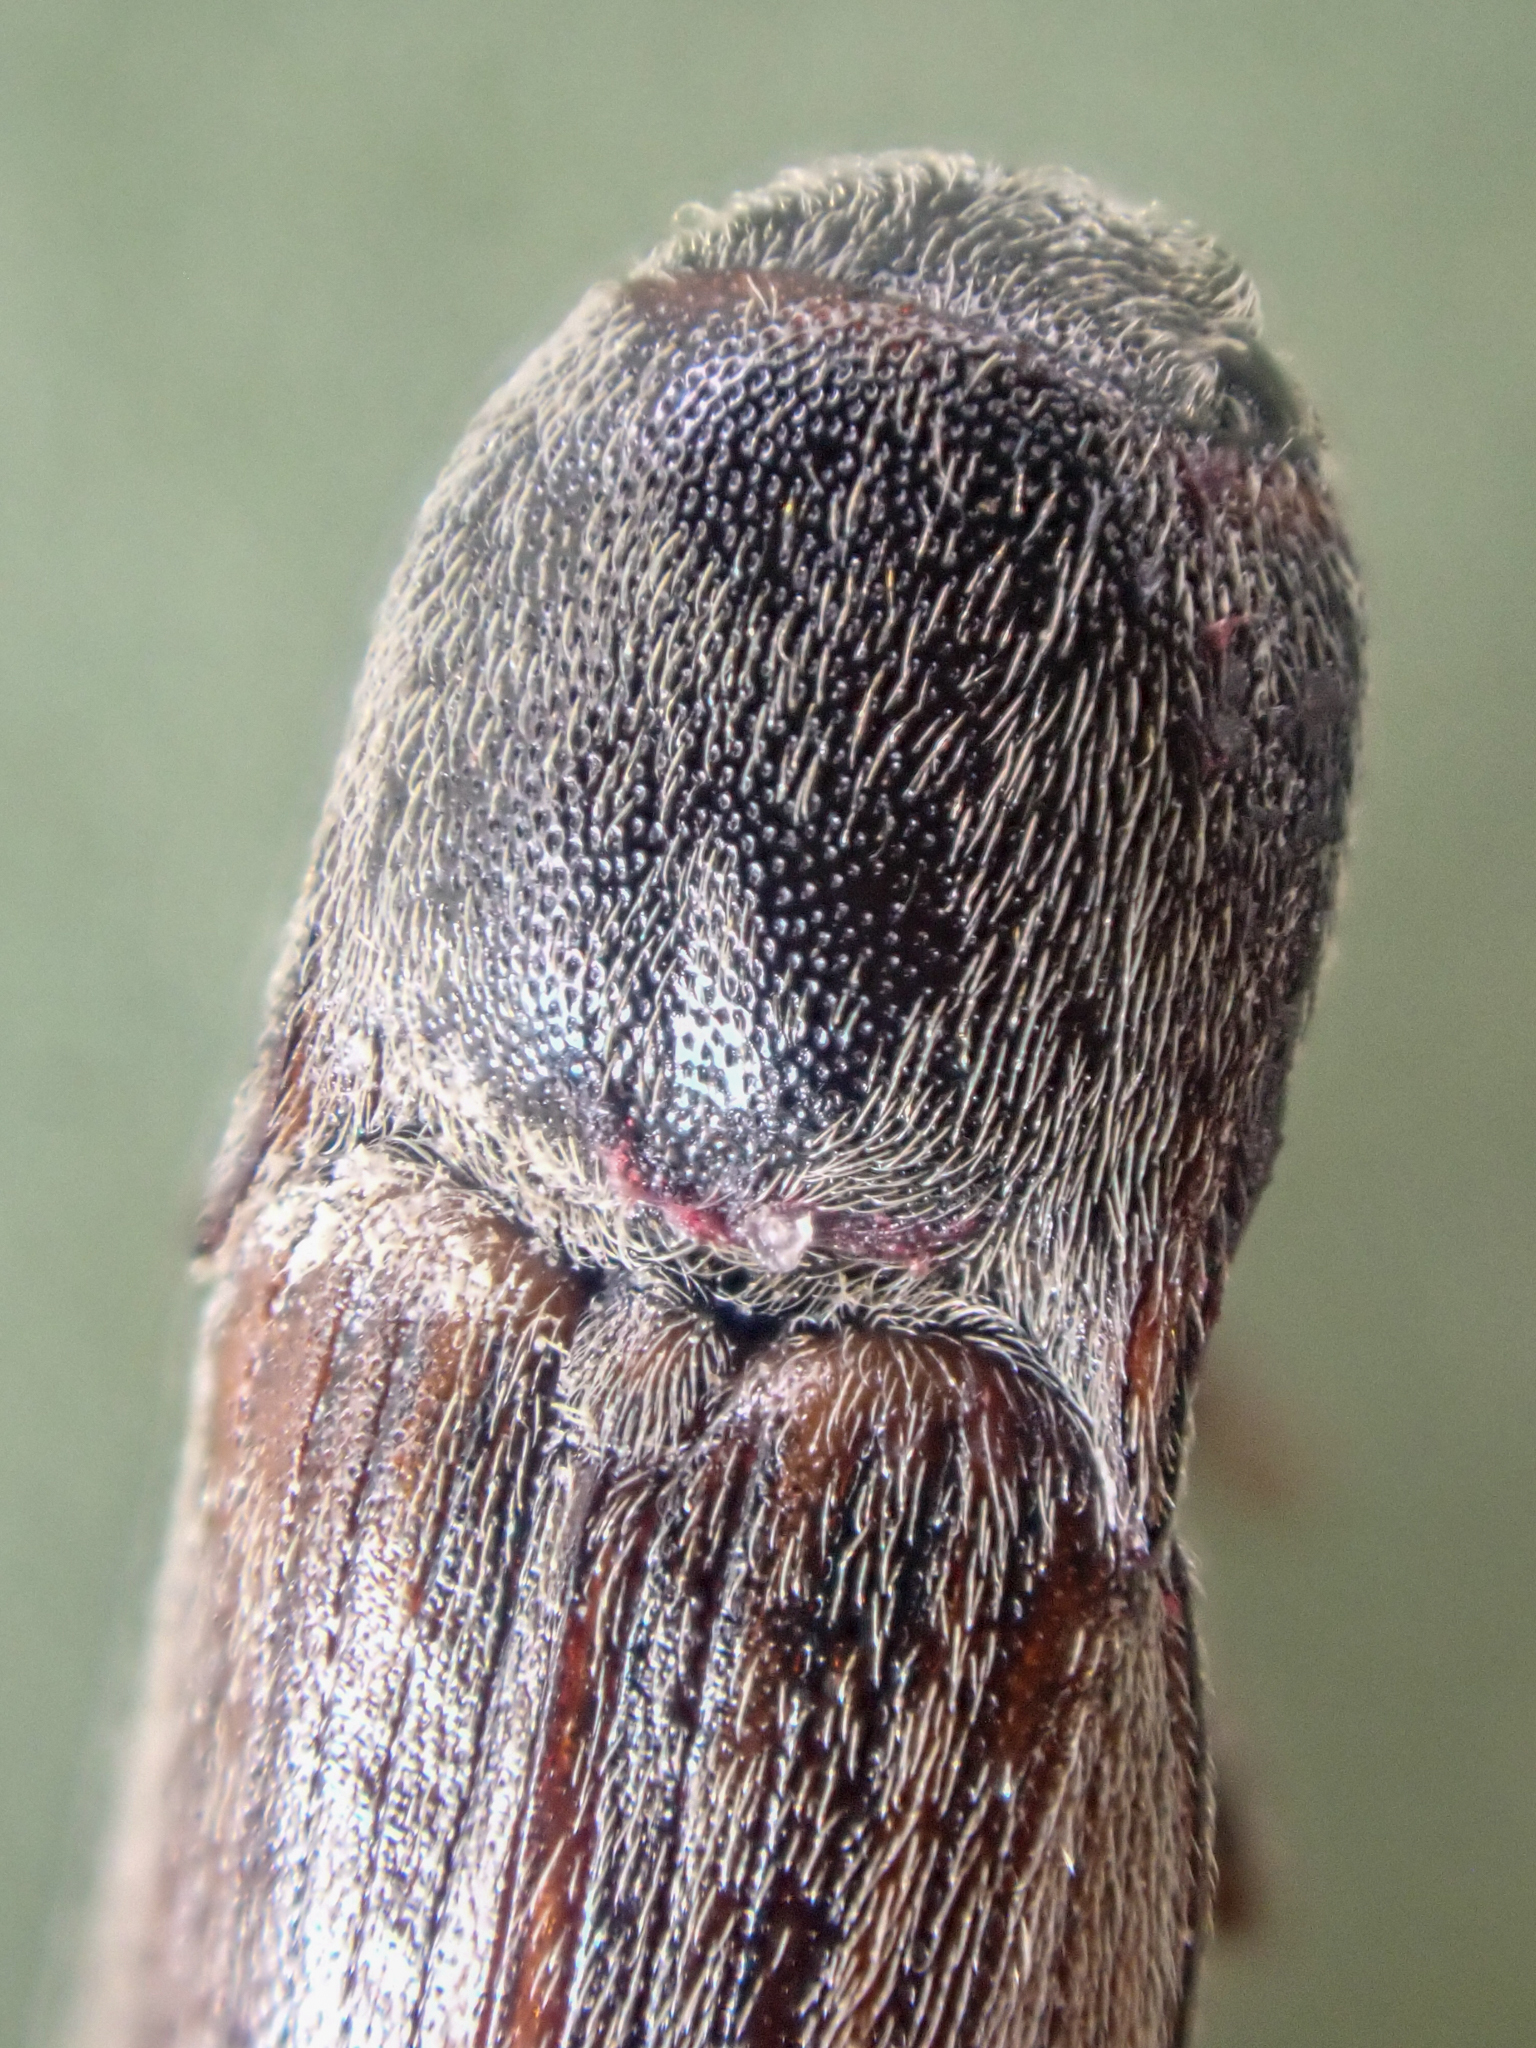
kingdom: Animalia
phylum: Arthropoda
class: Insecta
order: Coleoptera
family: Elateridae
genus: Agriotes
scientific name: Agriotes lineatus
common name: Lined click beetle
